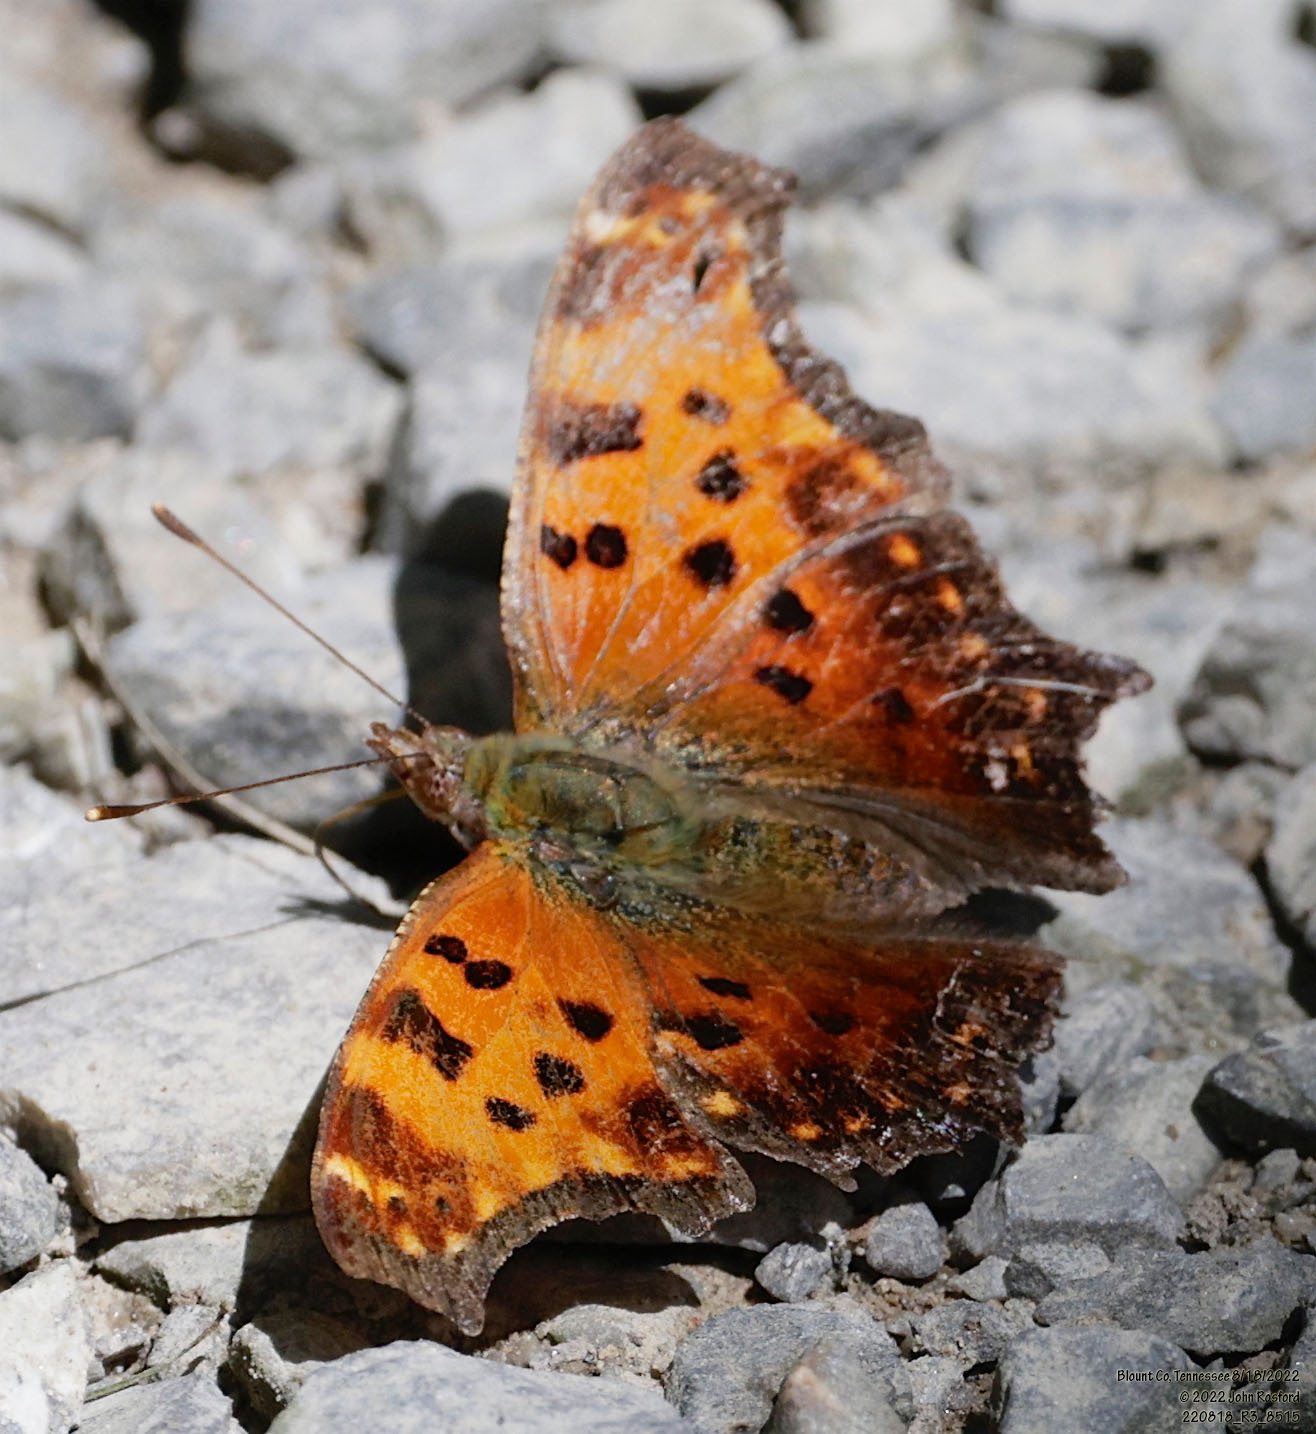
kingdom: Animalia
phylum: Arthropoda
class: Insecta
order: Lepidoptera
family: Nymphalidae
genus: Polygonia
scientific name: Polygonia comma
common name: Eastern comma
